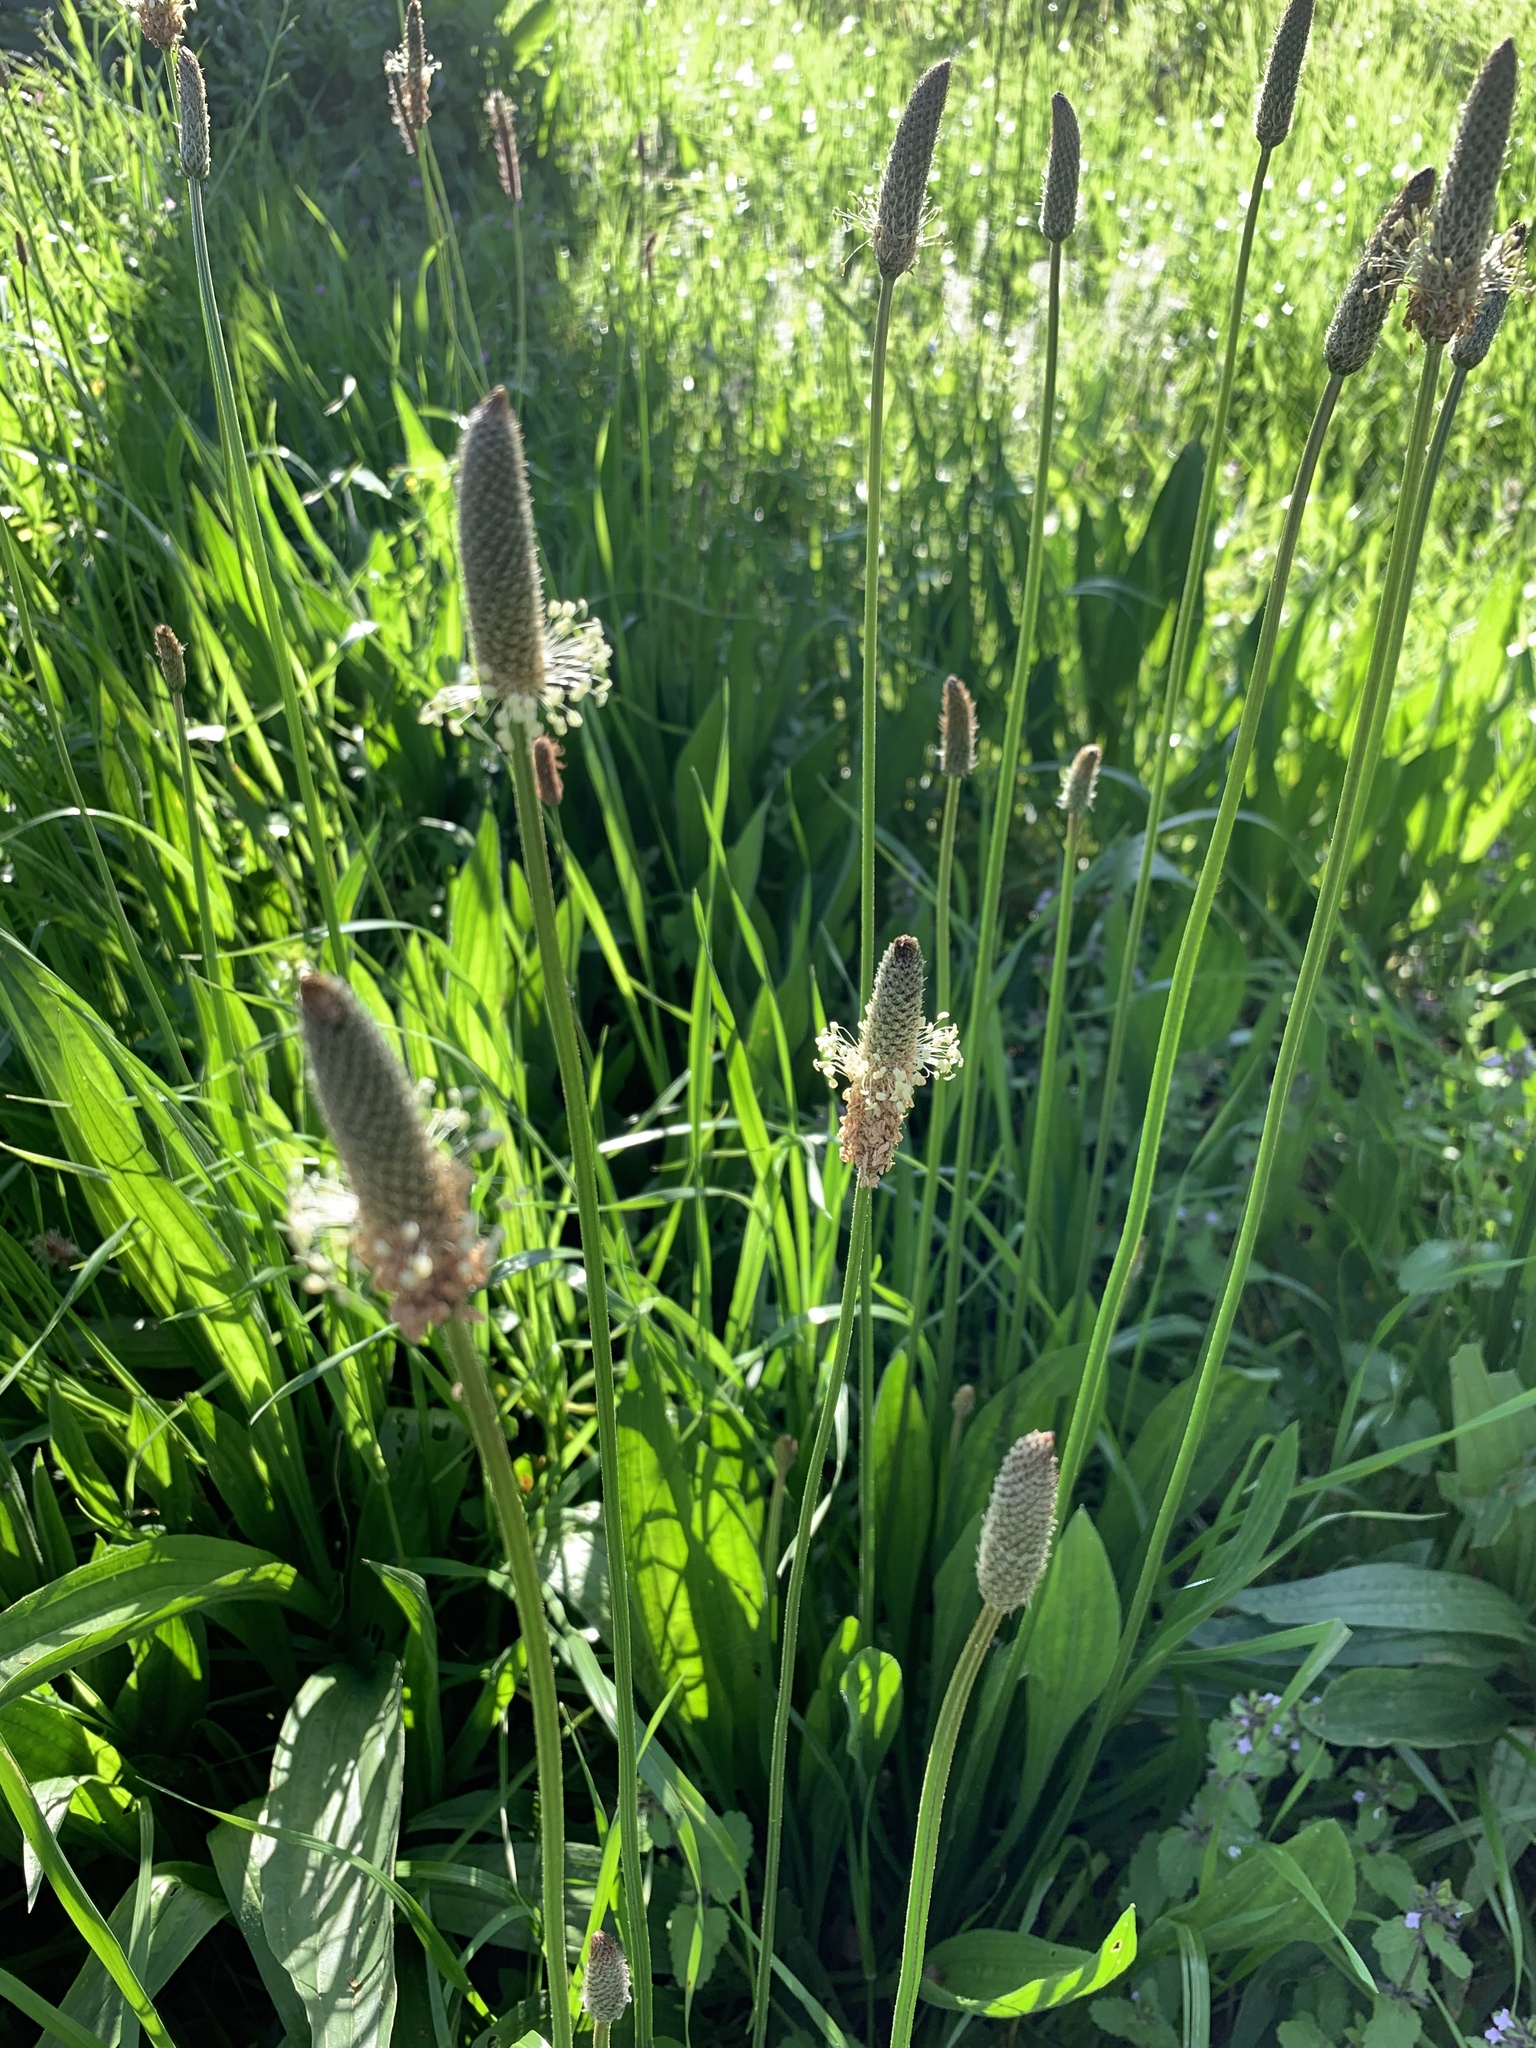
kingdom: Plantae
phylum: Tracheophyta
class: Magnoliopsida
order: Lamiales
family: Plantaginaceae
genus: Plantago
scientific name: Plantago lanceolata
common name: Ribwort plantain
